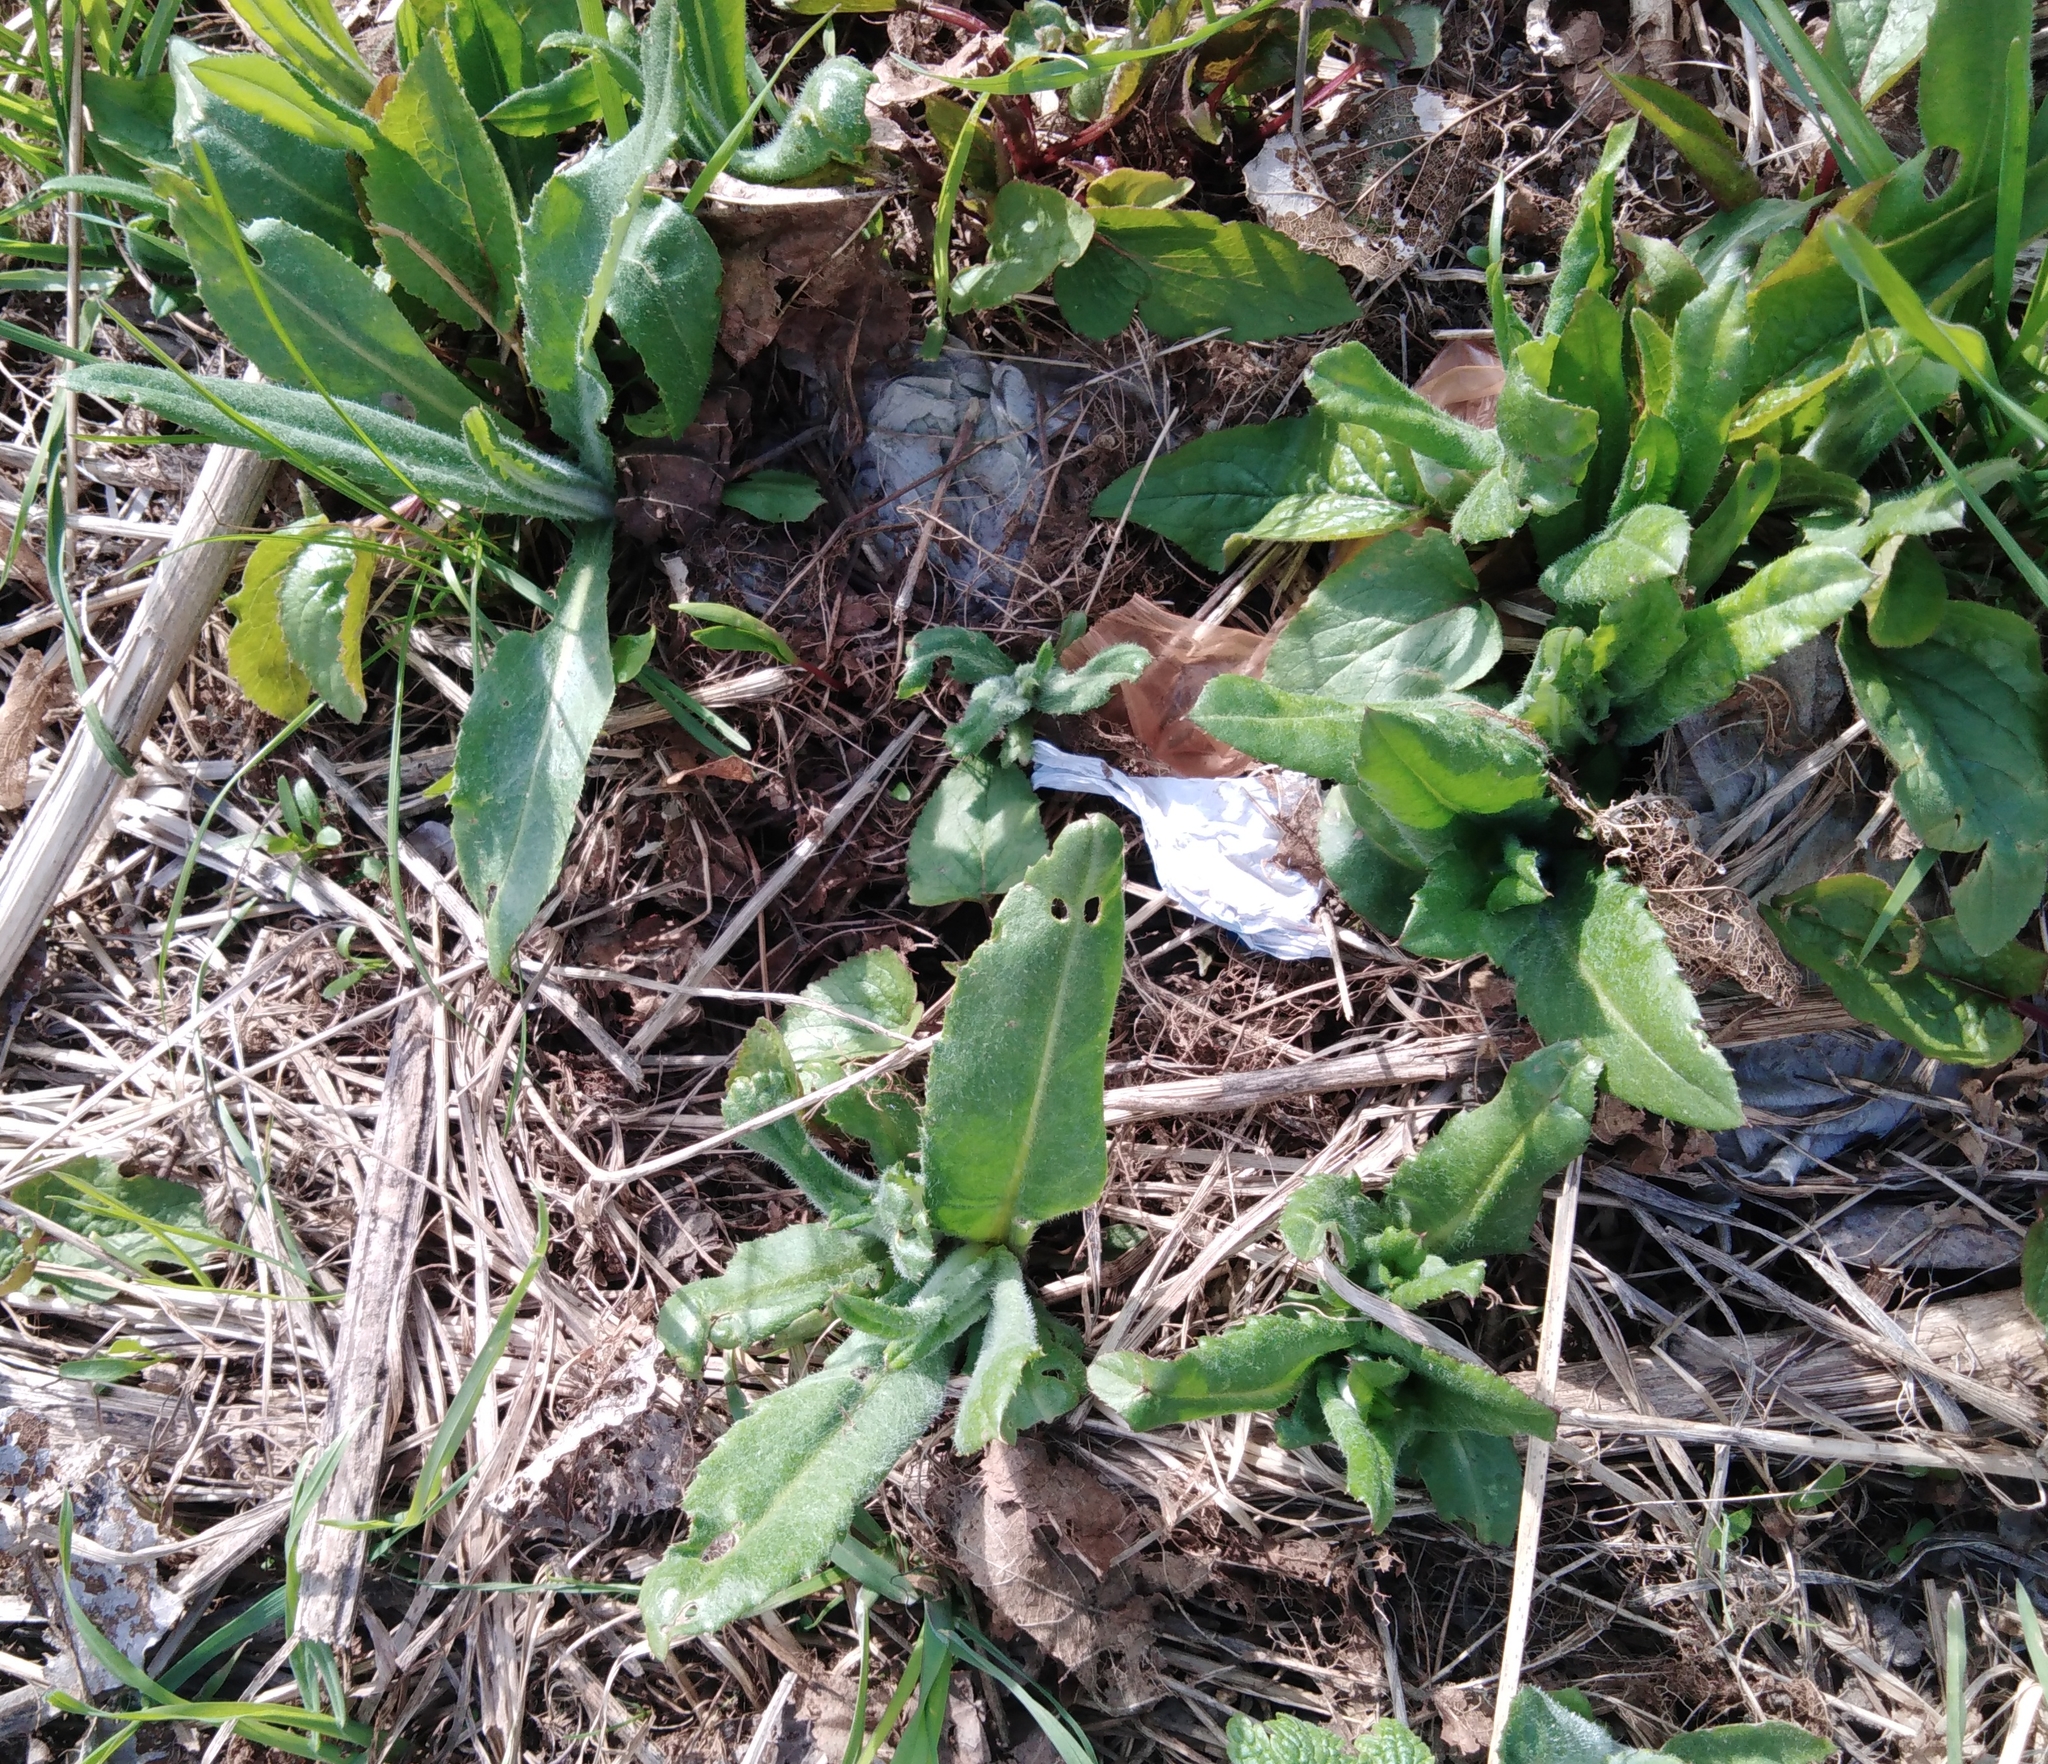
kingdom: Plantae
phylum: Tracheophyta
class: Magnoliopsida
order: Asterales
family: Asteraceae
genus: Cirsium
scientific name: Cirsium arvense
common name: Creeping thistle
